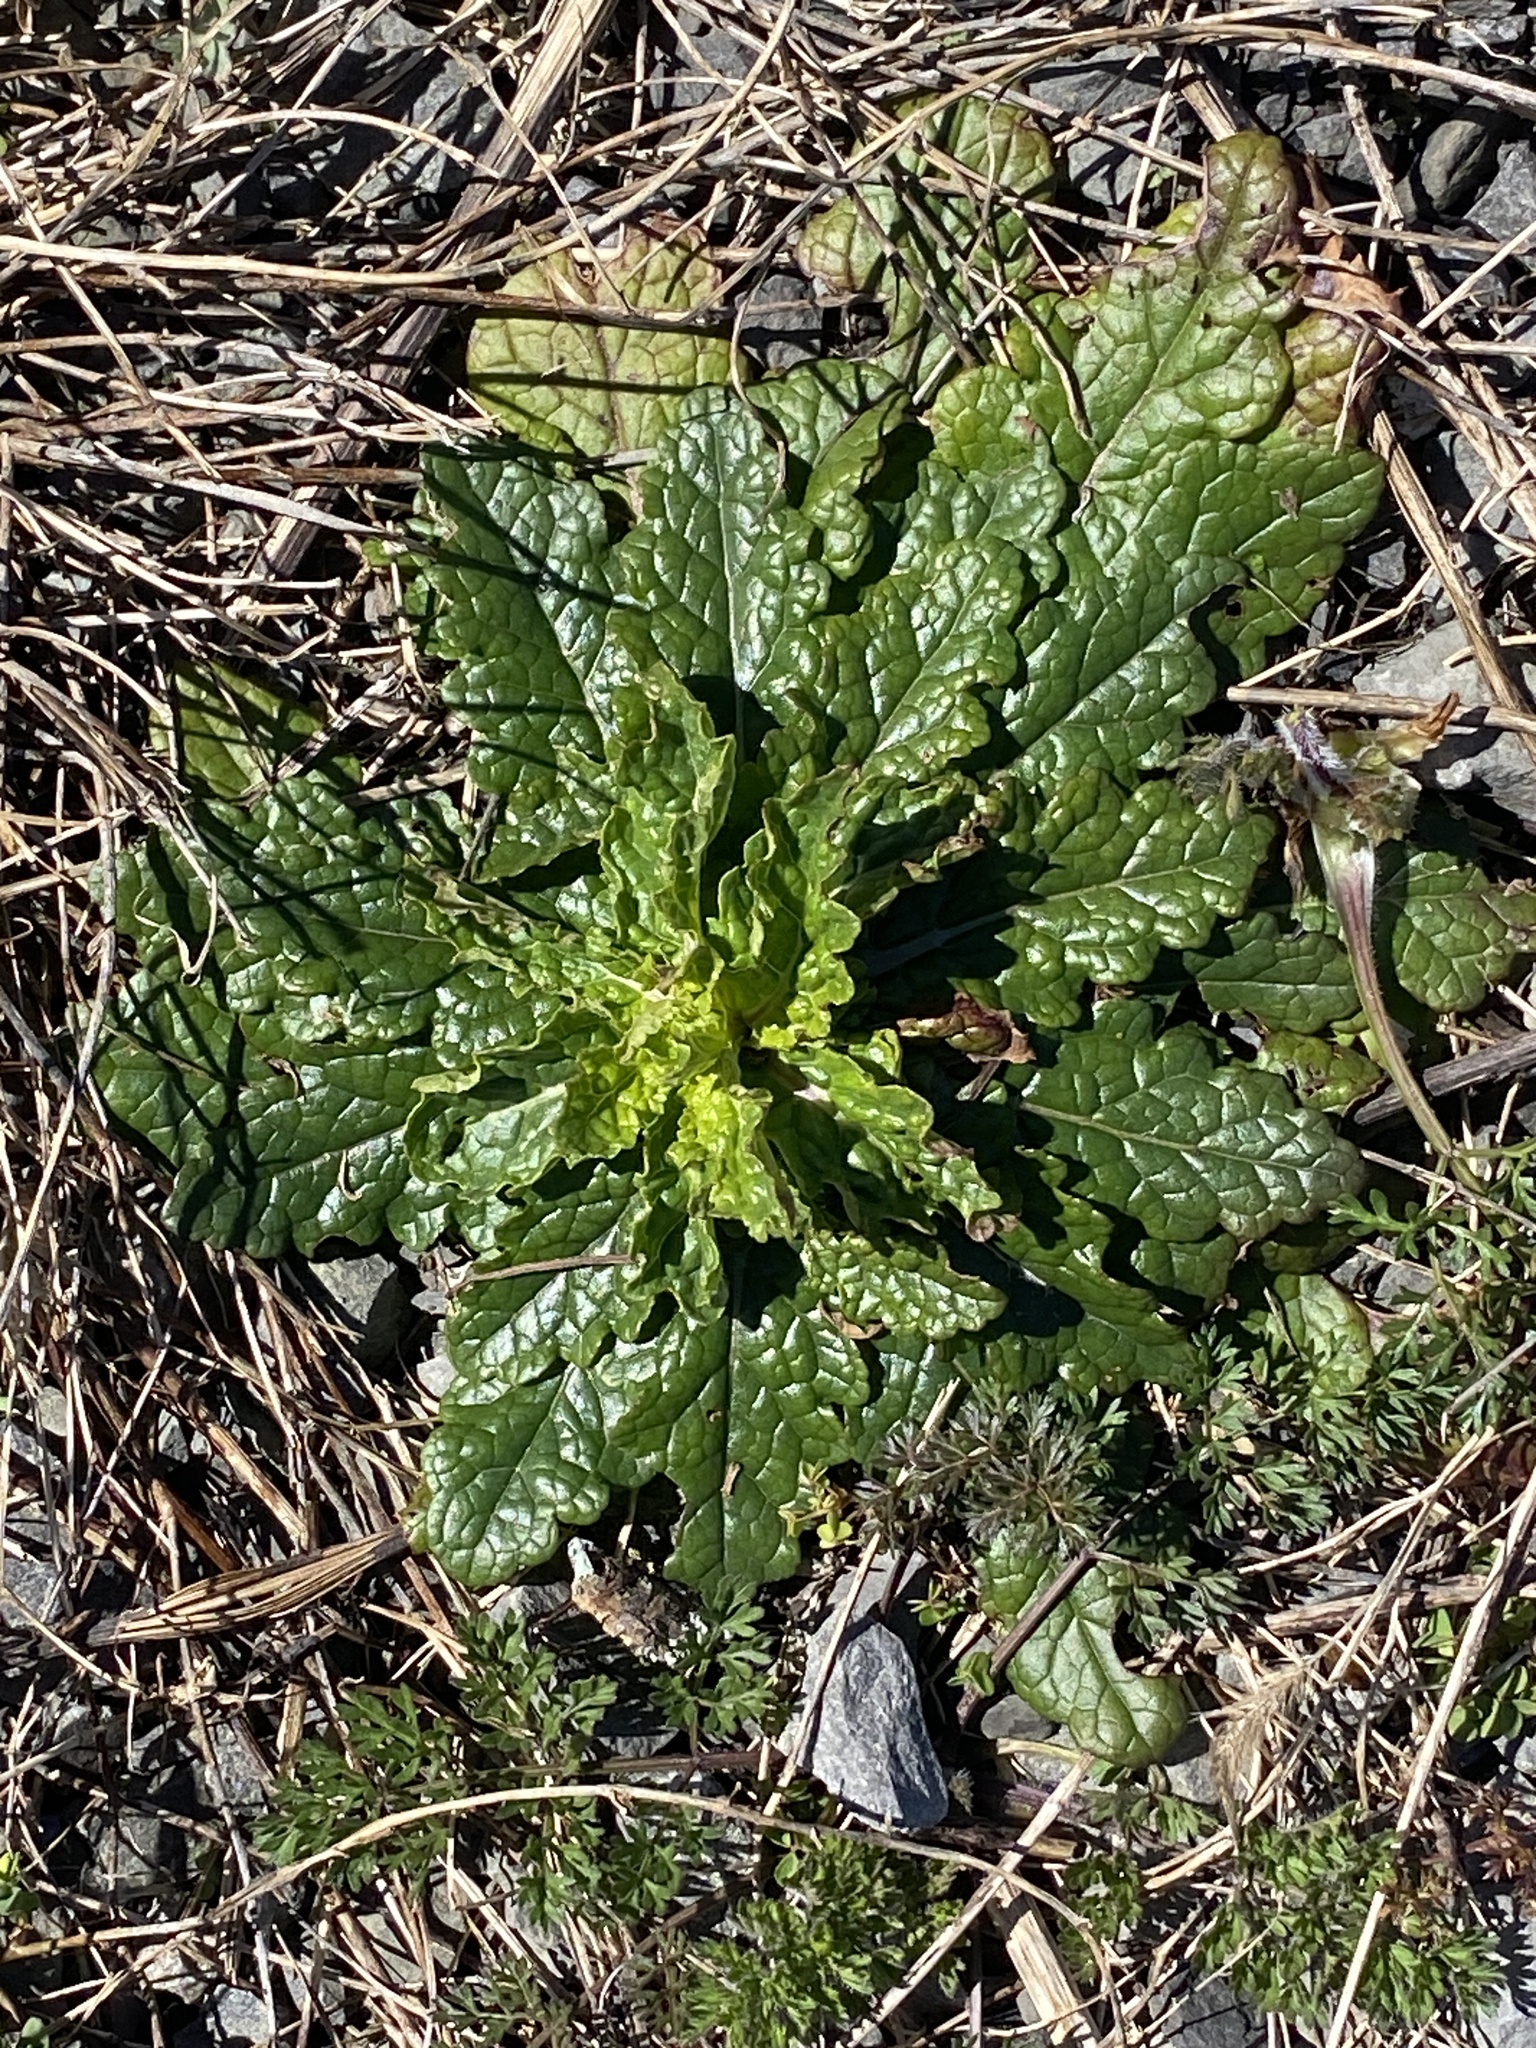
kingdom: Plantae
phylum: Tracheophyta
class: Magnoliopsida
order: Lamiales
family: Scrophulariaceae
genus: Verbascum
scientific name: Verbascum blattaria
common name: Moth mullein
